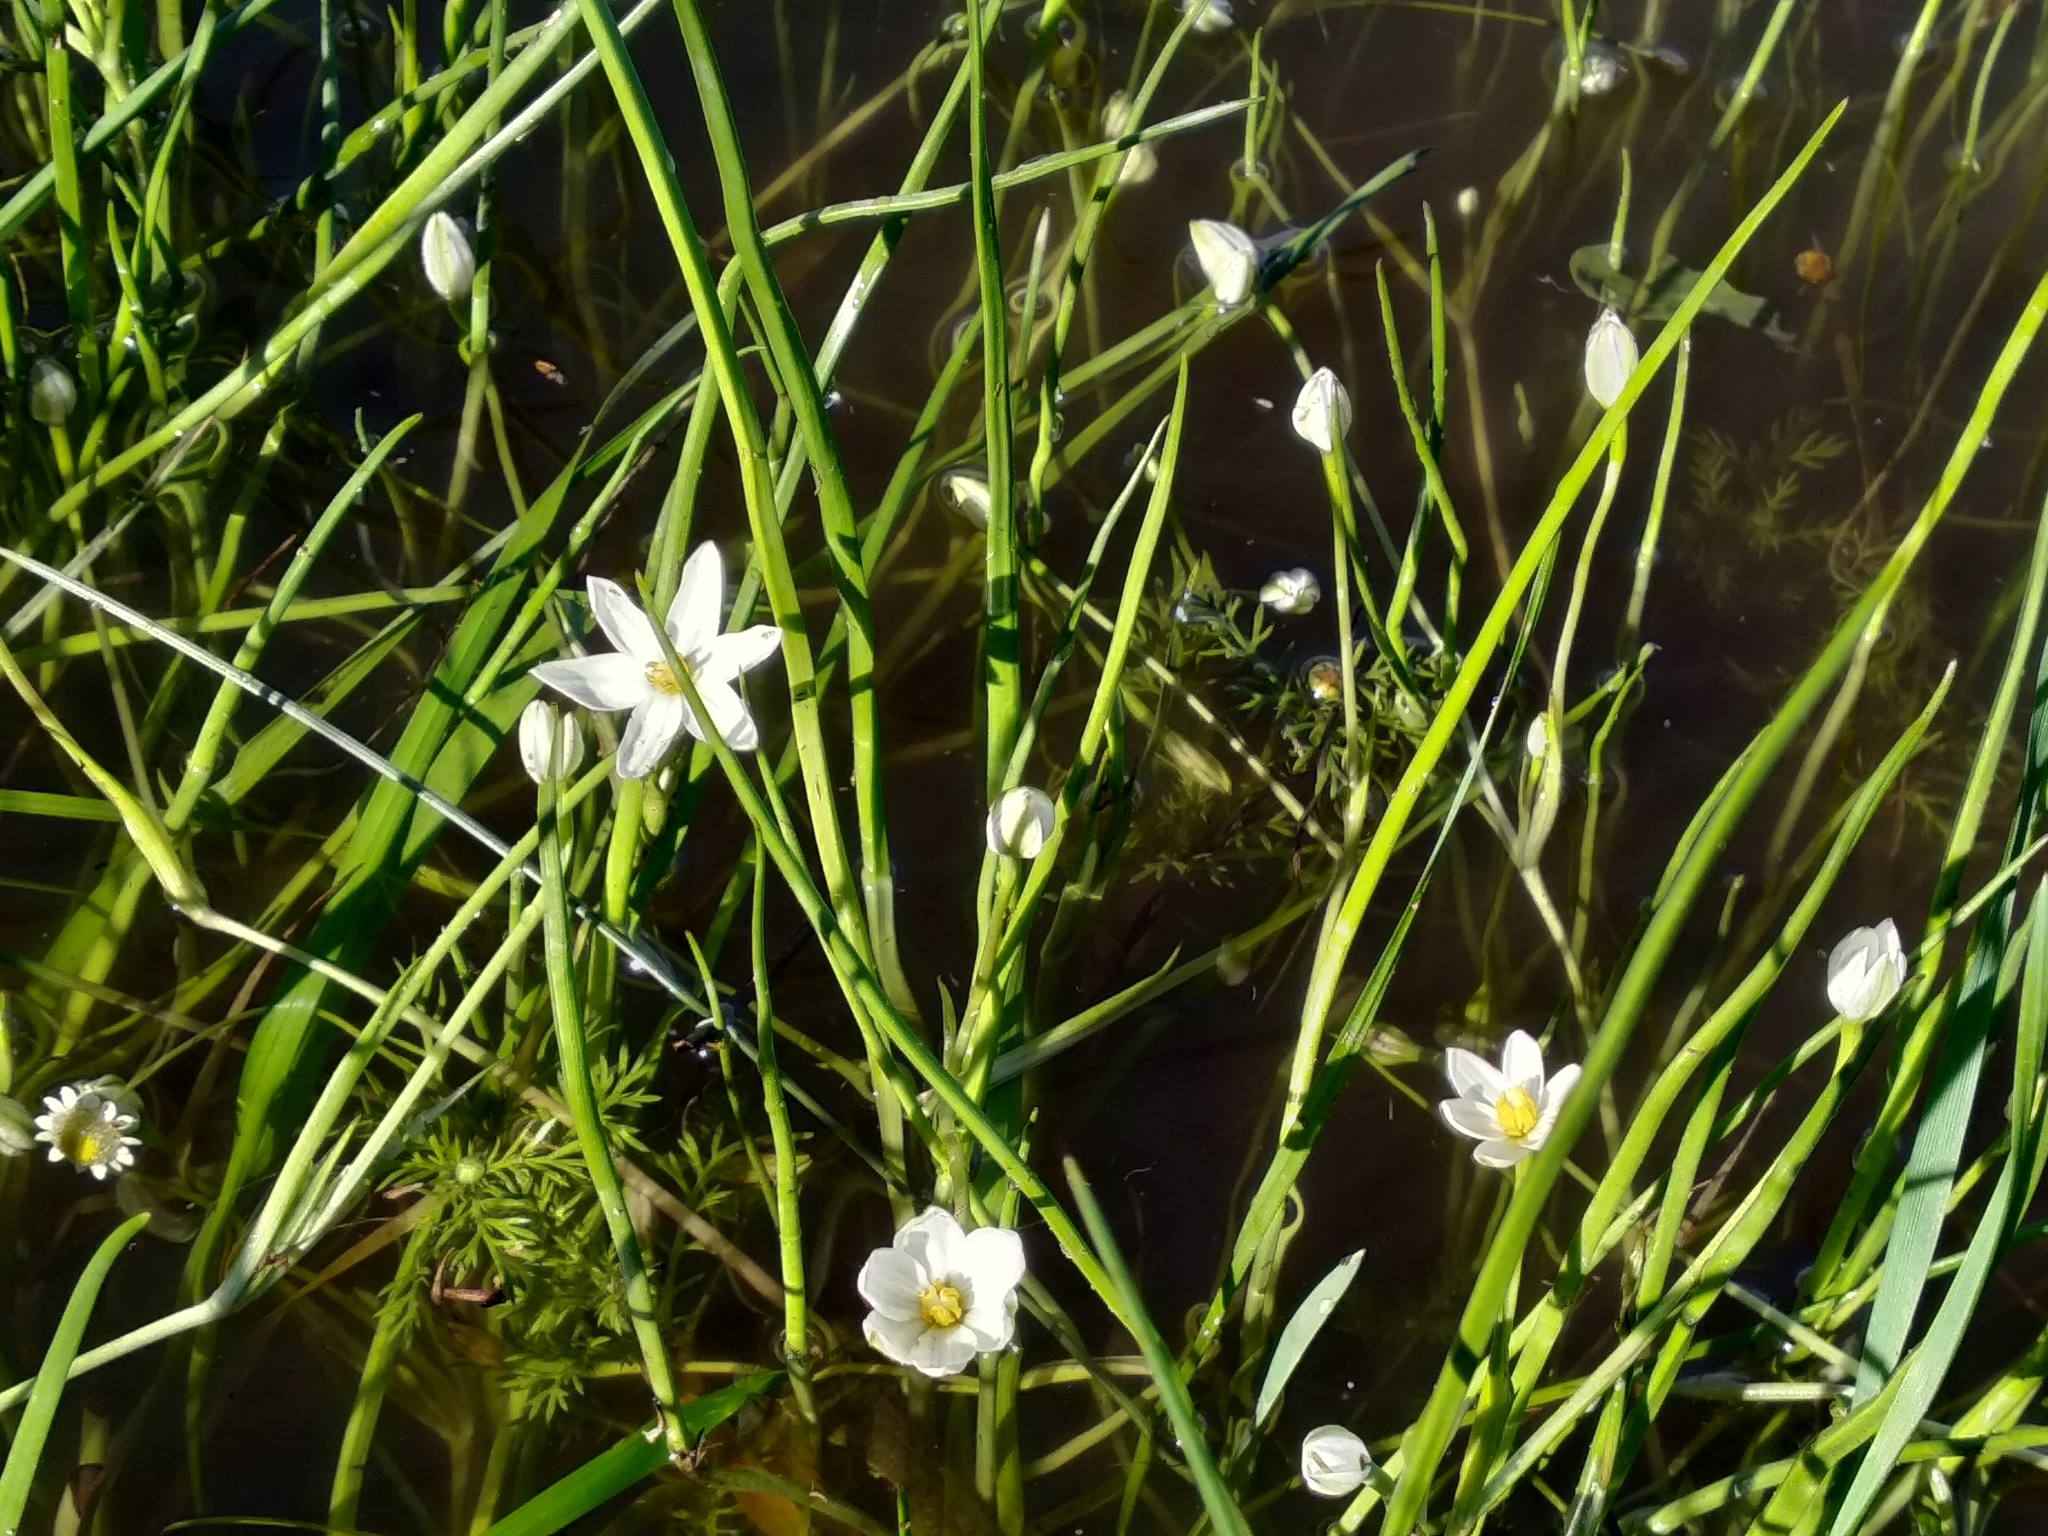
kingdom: Plantae
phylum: Tracheophyta
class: Liliopsida
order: Asparagales
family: Hypoxidaceae
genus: Pauridia
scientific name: Pauridia aquatica
